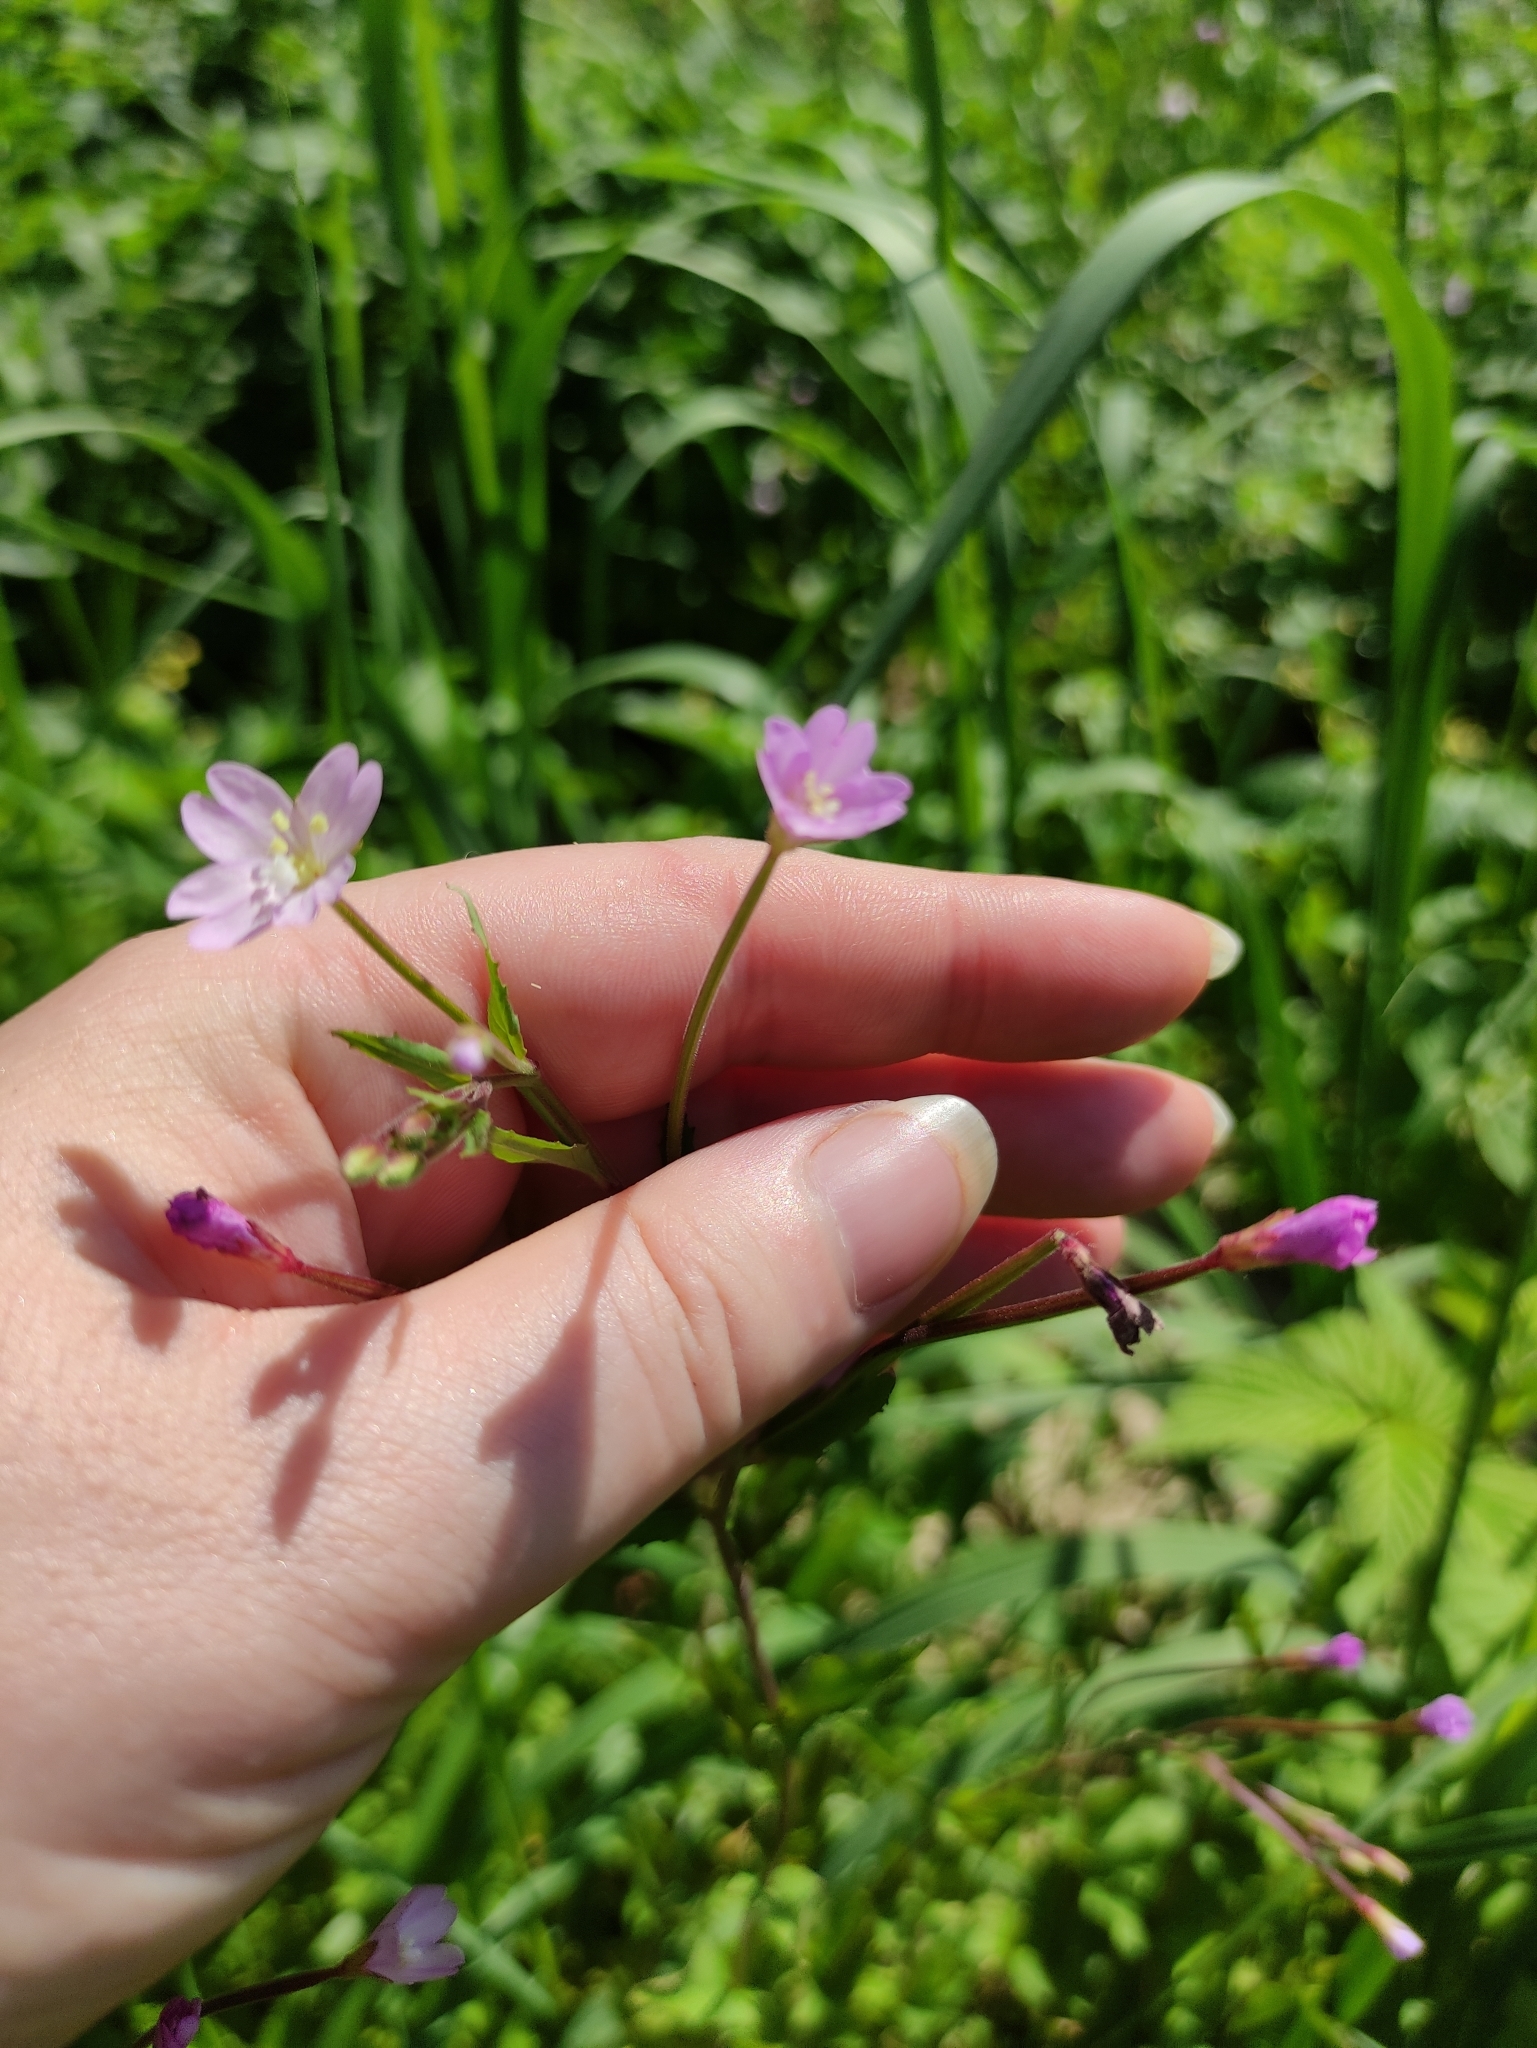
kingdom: Plantae
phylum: Tracheophyta
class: Magnoliopsida
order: Myrtales
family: Onagraceae
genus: Epilobium
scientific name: Epilobium montanum
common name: Broad-leaved willowherb
